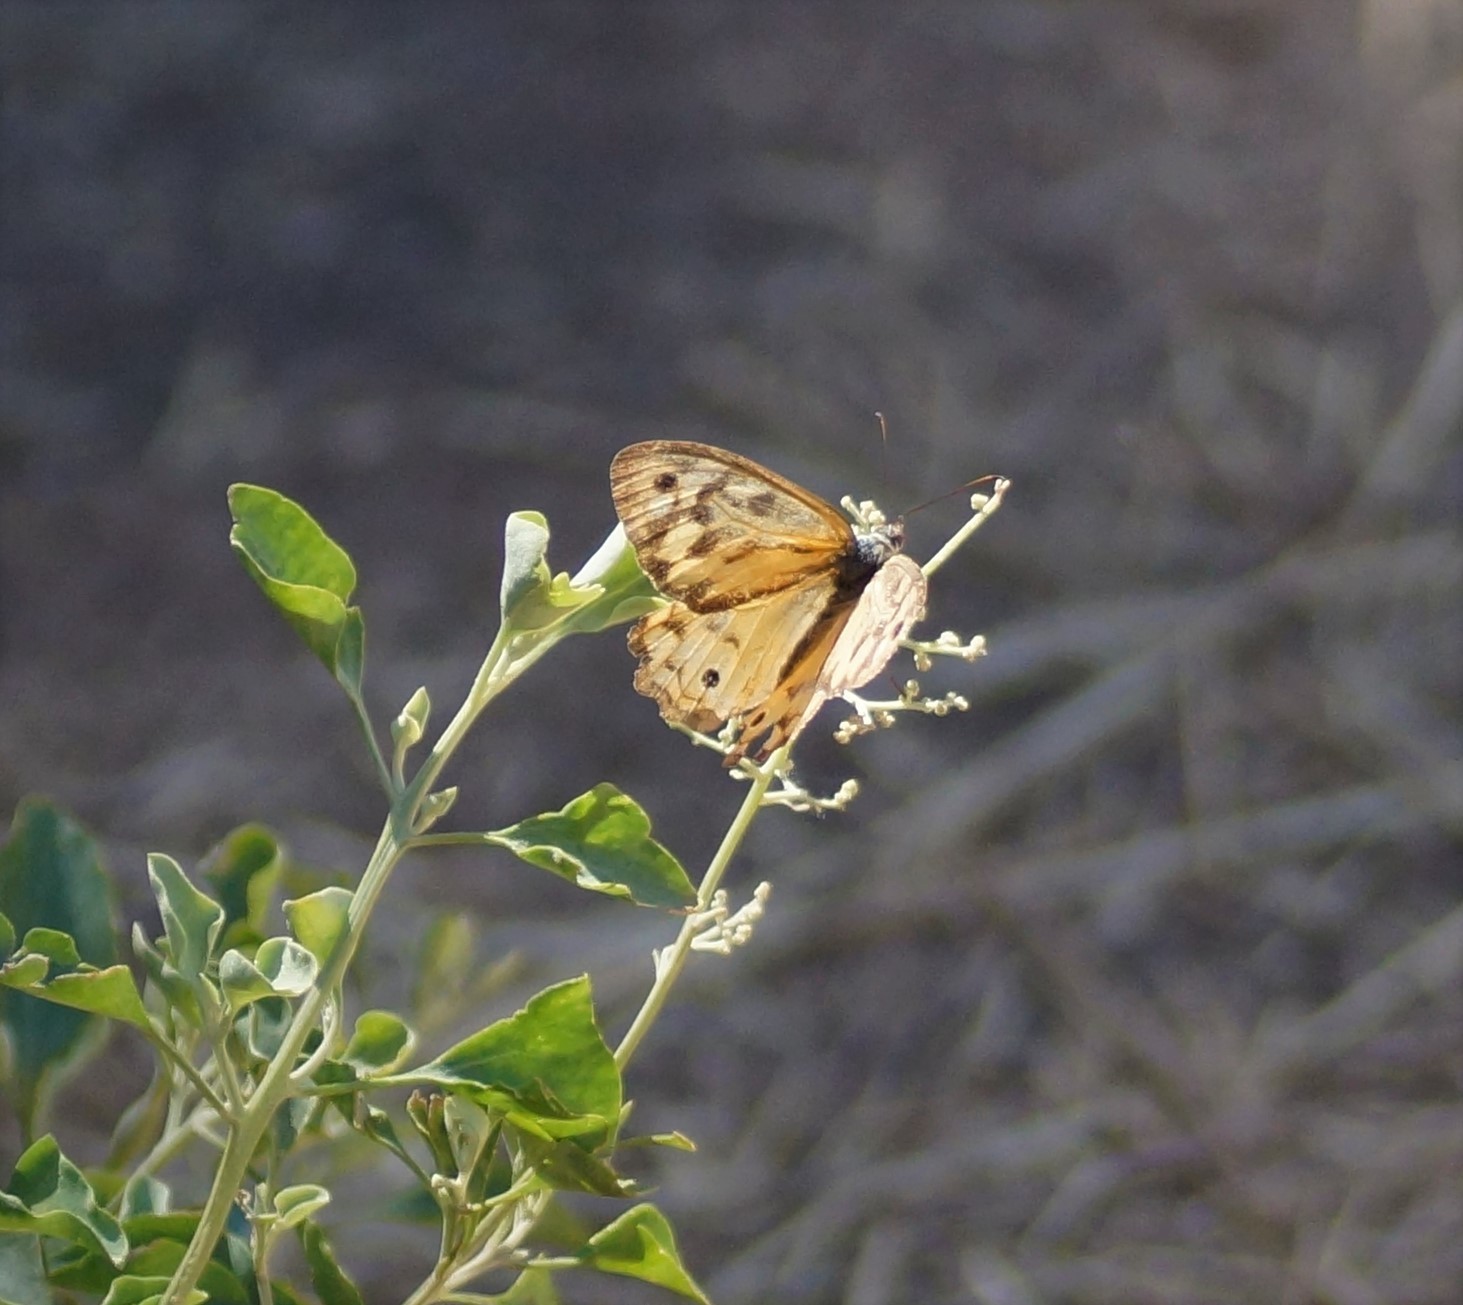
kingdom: Animalia
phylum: Arthropoda
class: Insecta
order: Lepidoptera
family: Nymphalidae
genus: Heteronympha
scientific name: Heteronympha merope
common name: Common brown
